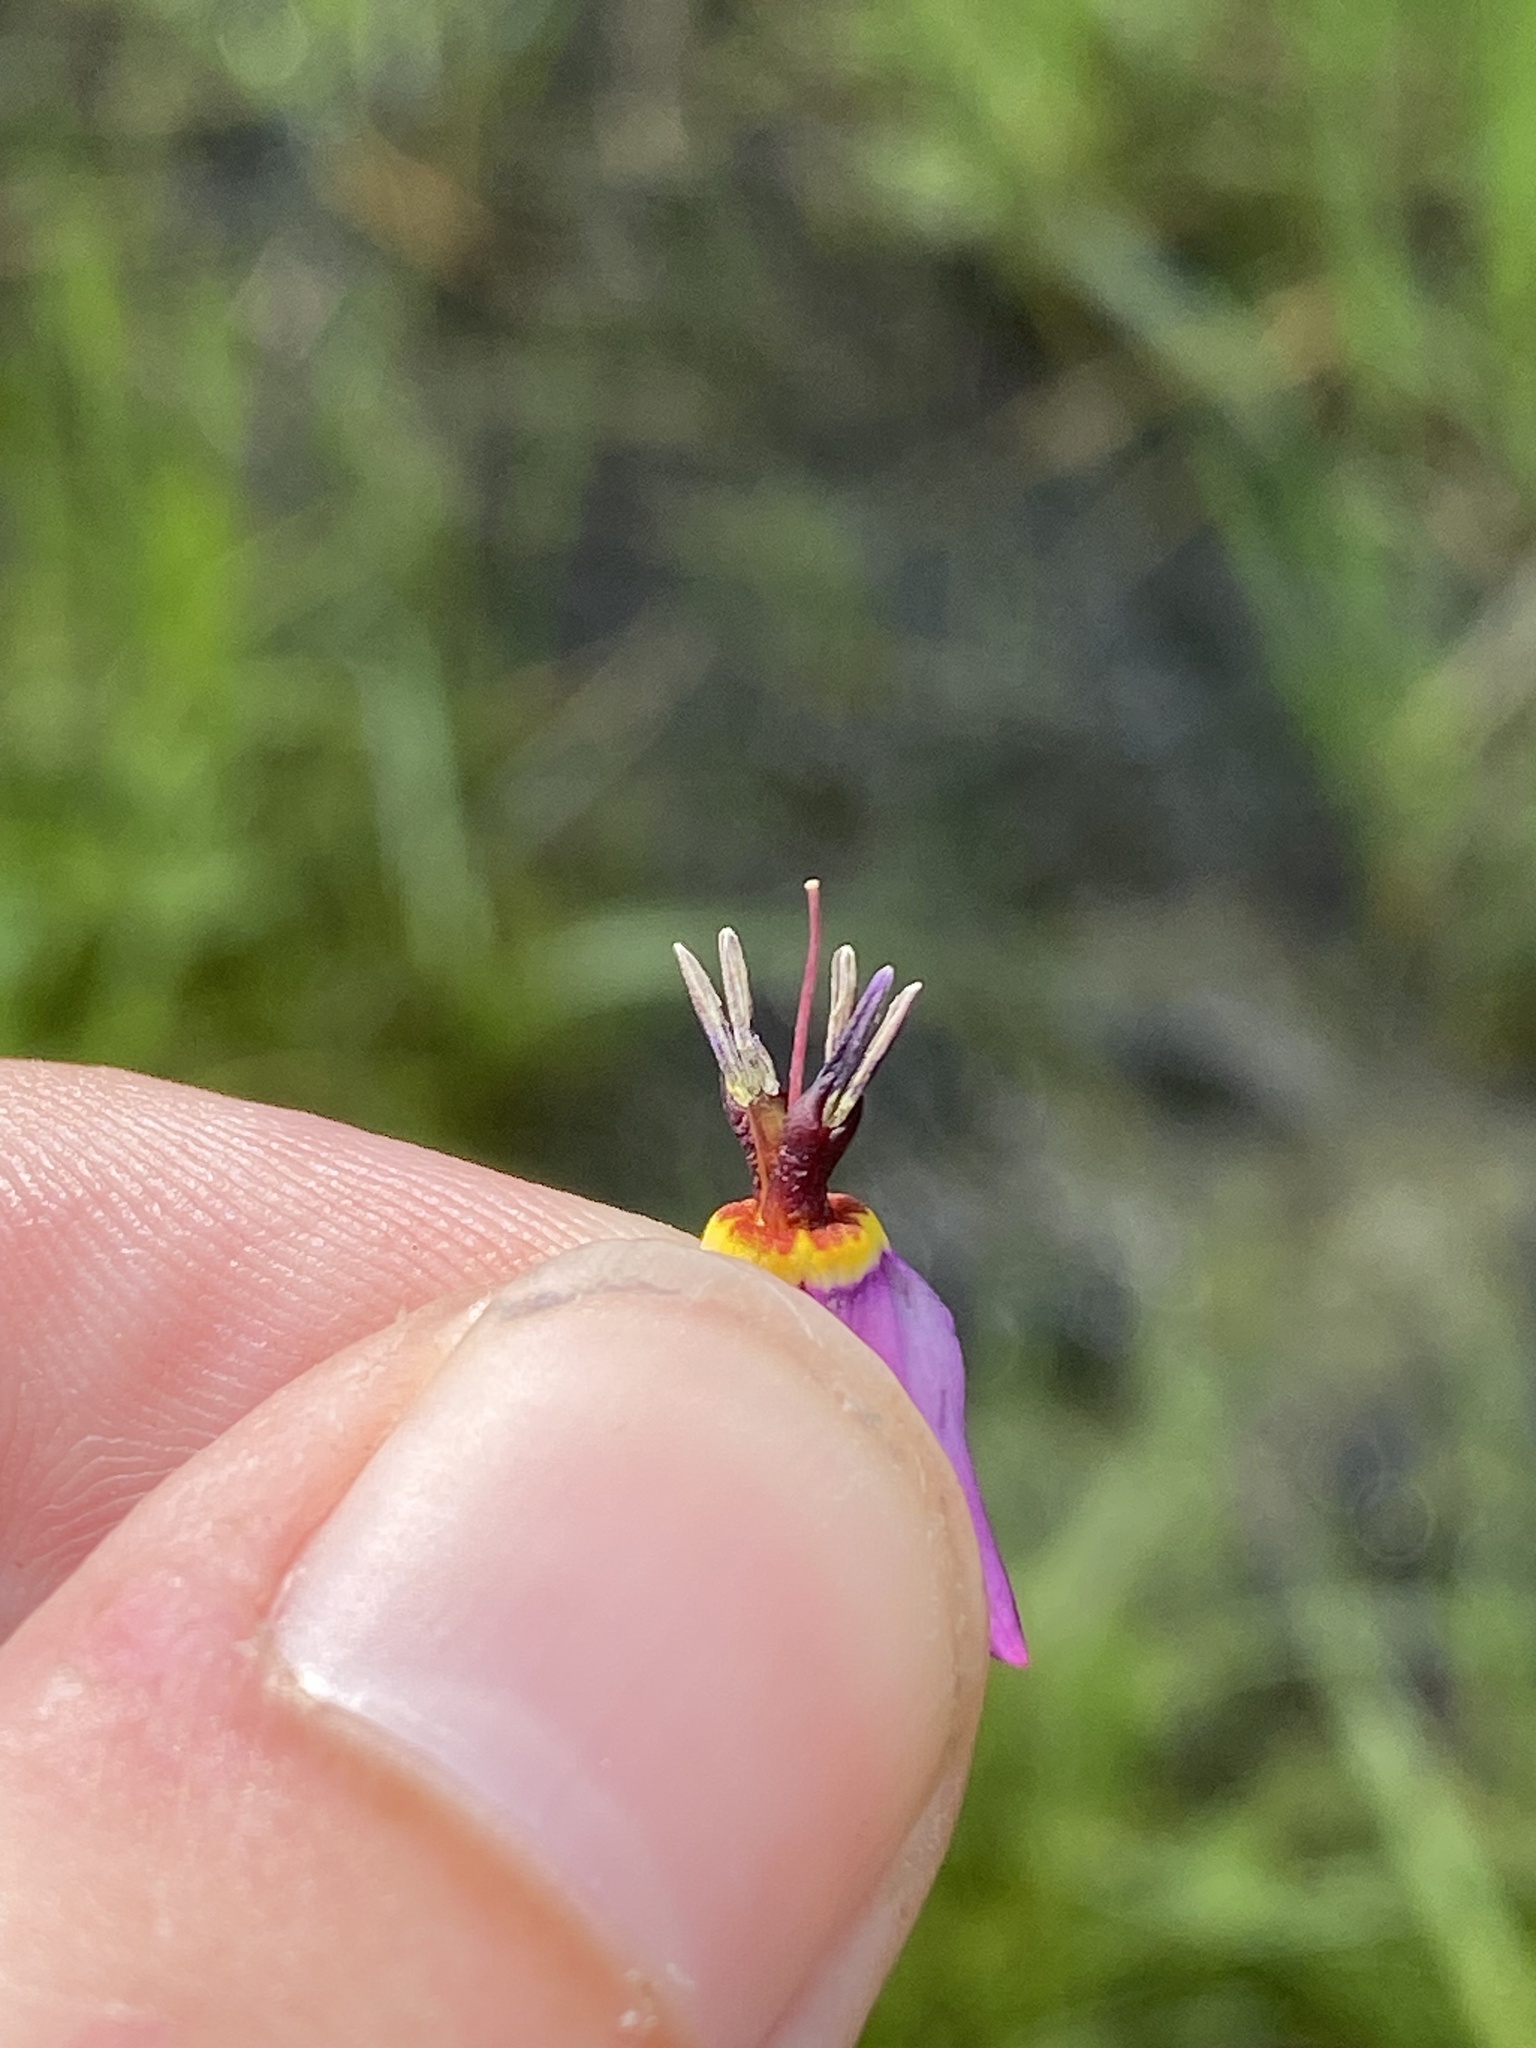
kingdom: Plantae
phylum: Tracheophyta
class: Magnoliopsida
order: Ericales
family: Primulaceae
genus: Dodecatheon
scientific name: Dodecatheon pulchellum
